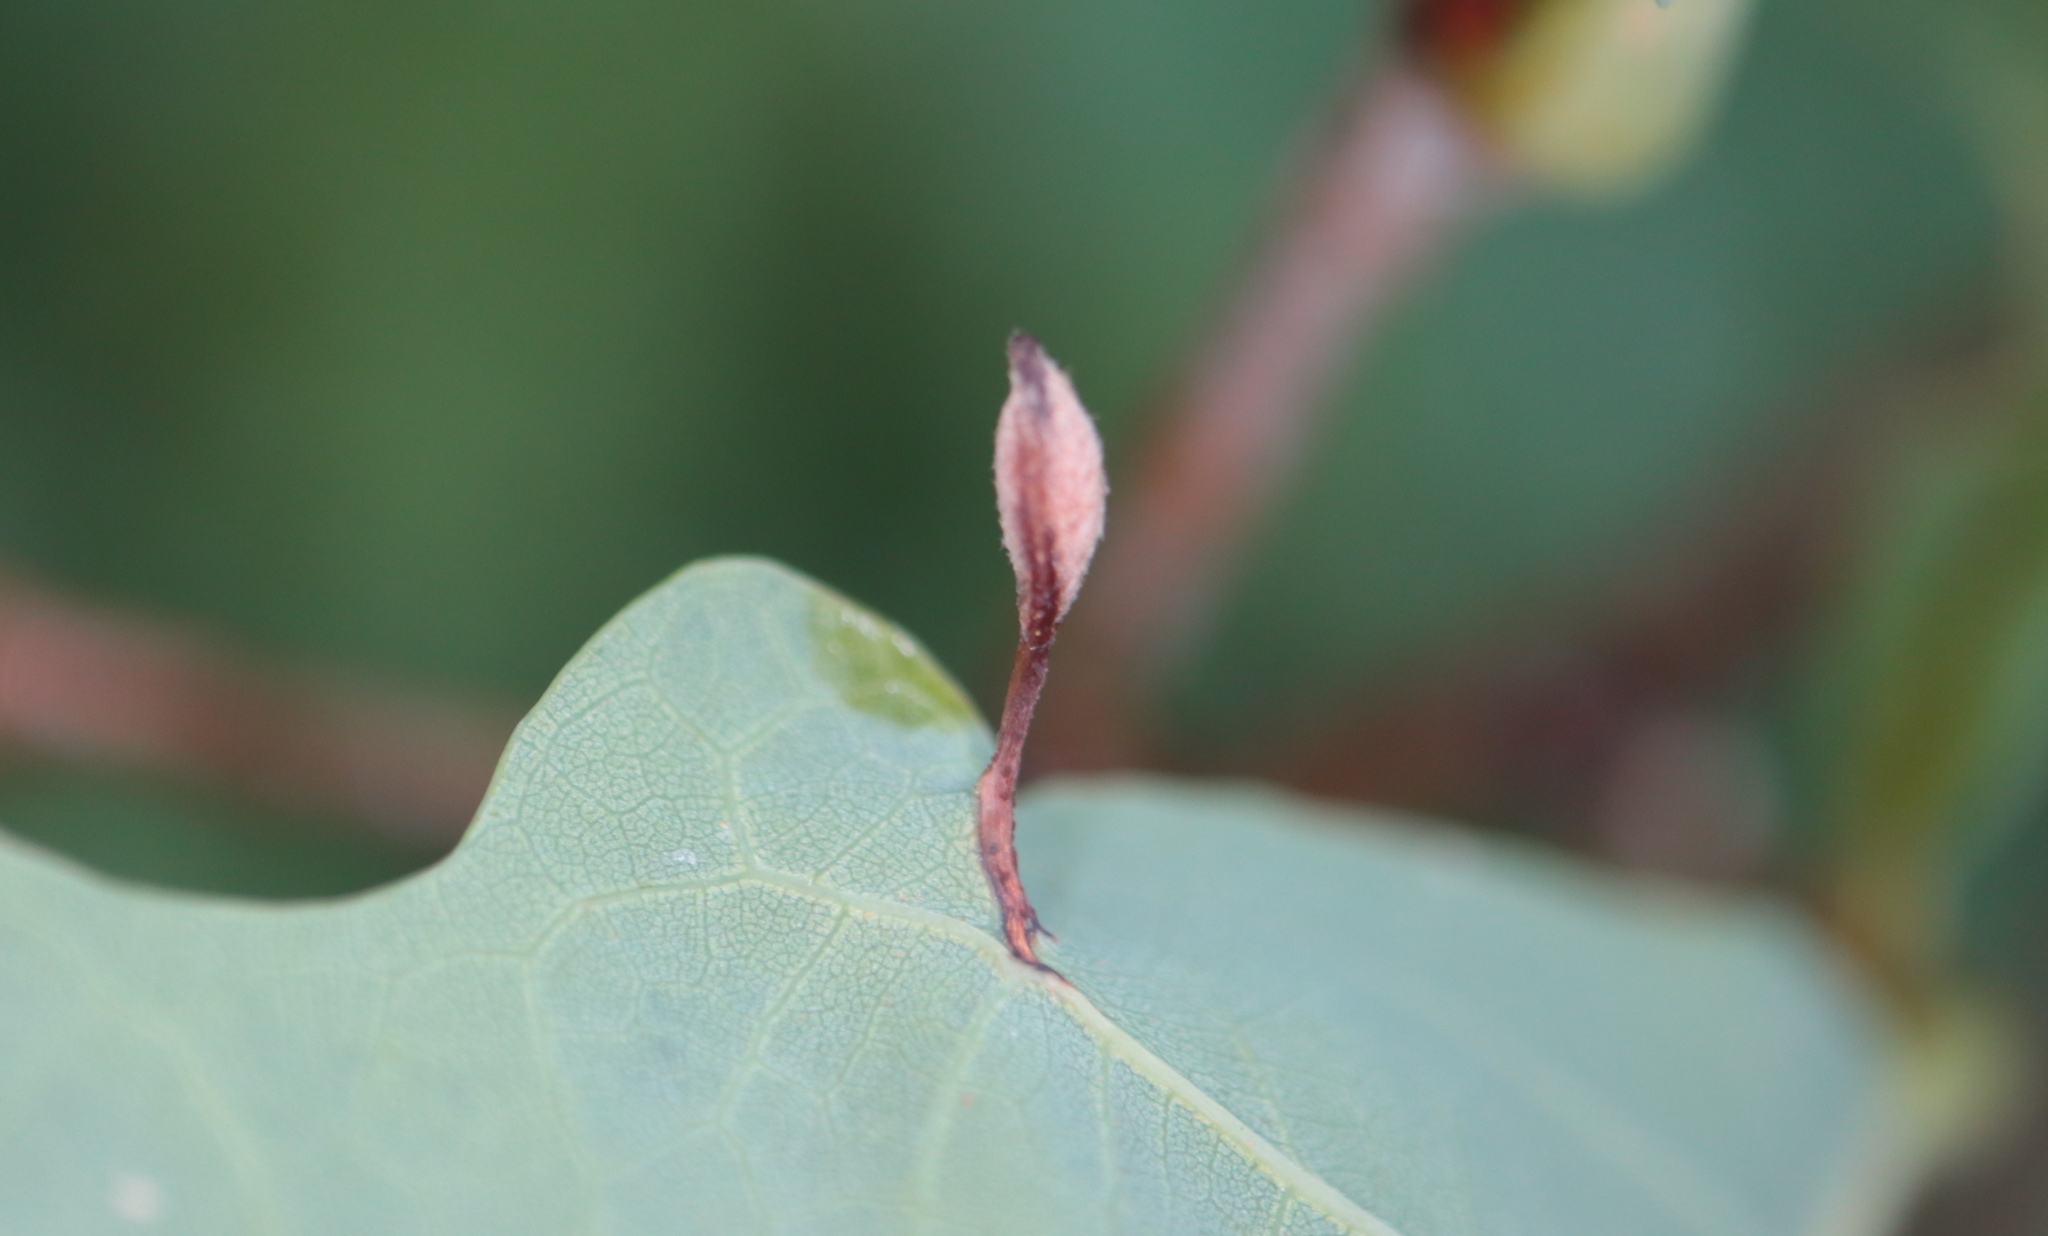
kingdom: Animalia
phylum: Arthropoda
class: Insecta
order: Hymenoptera
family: Cynipidae
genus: Andricus
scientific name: Andricus
